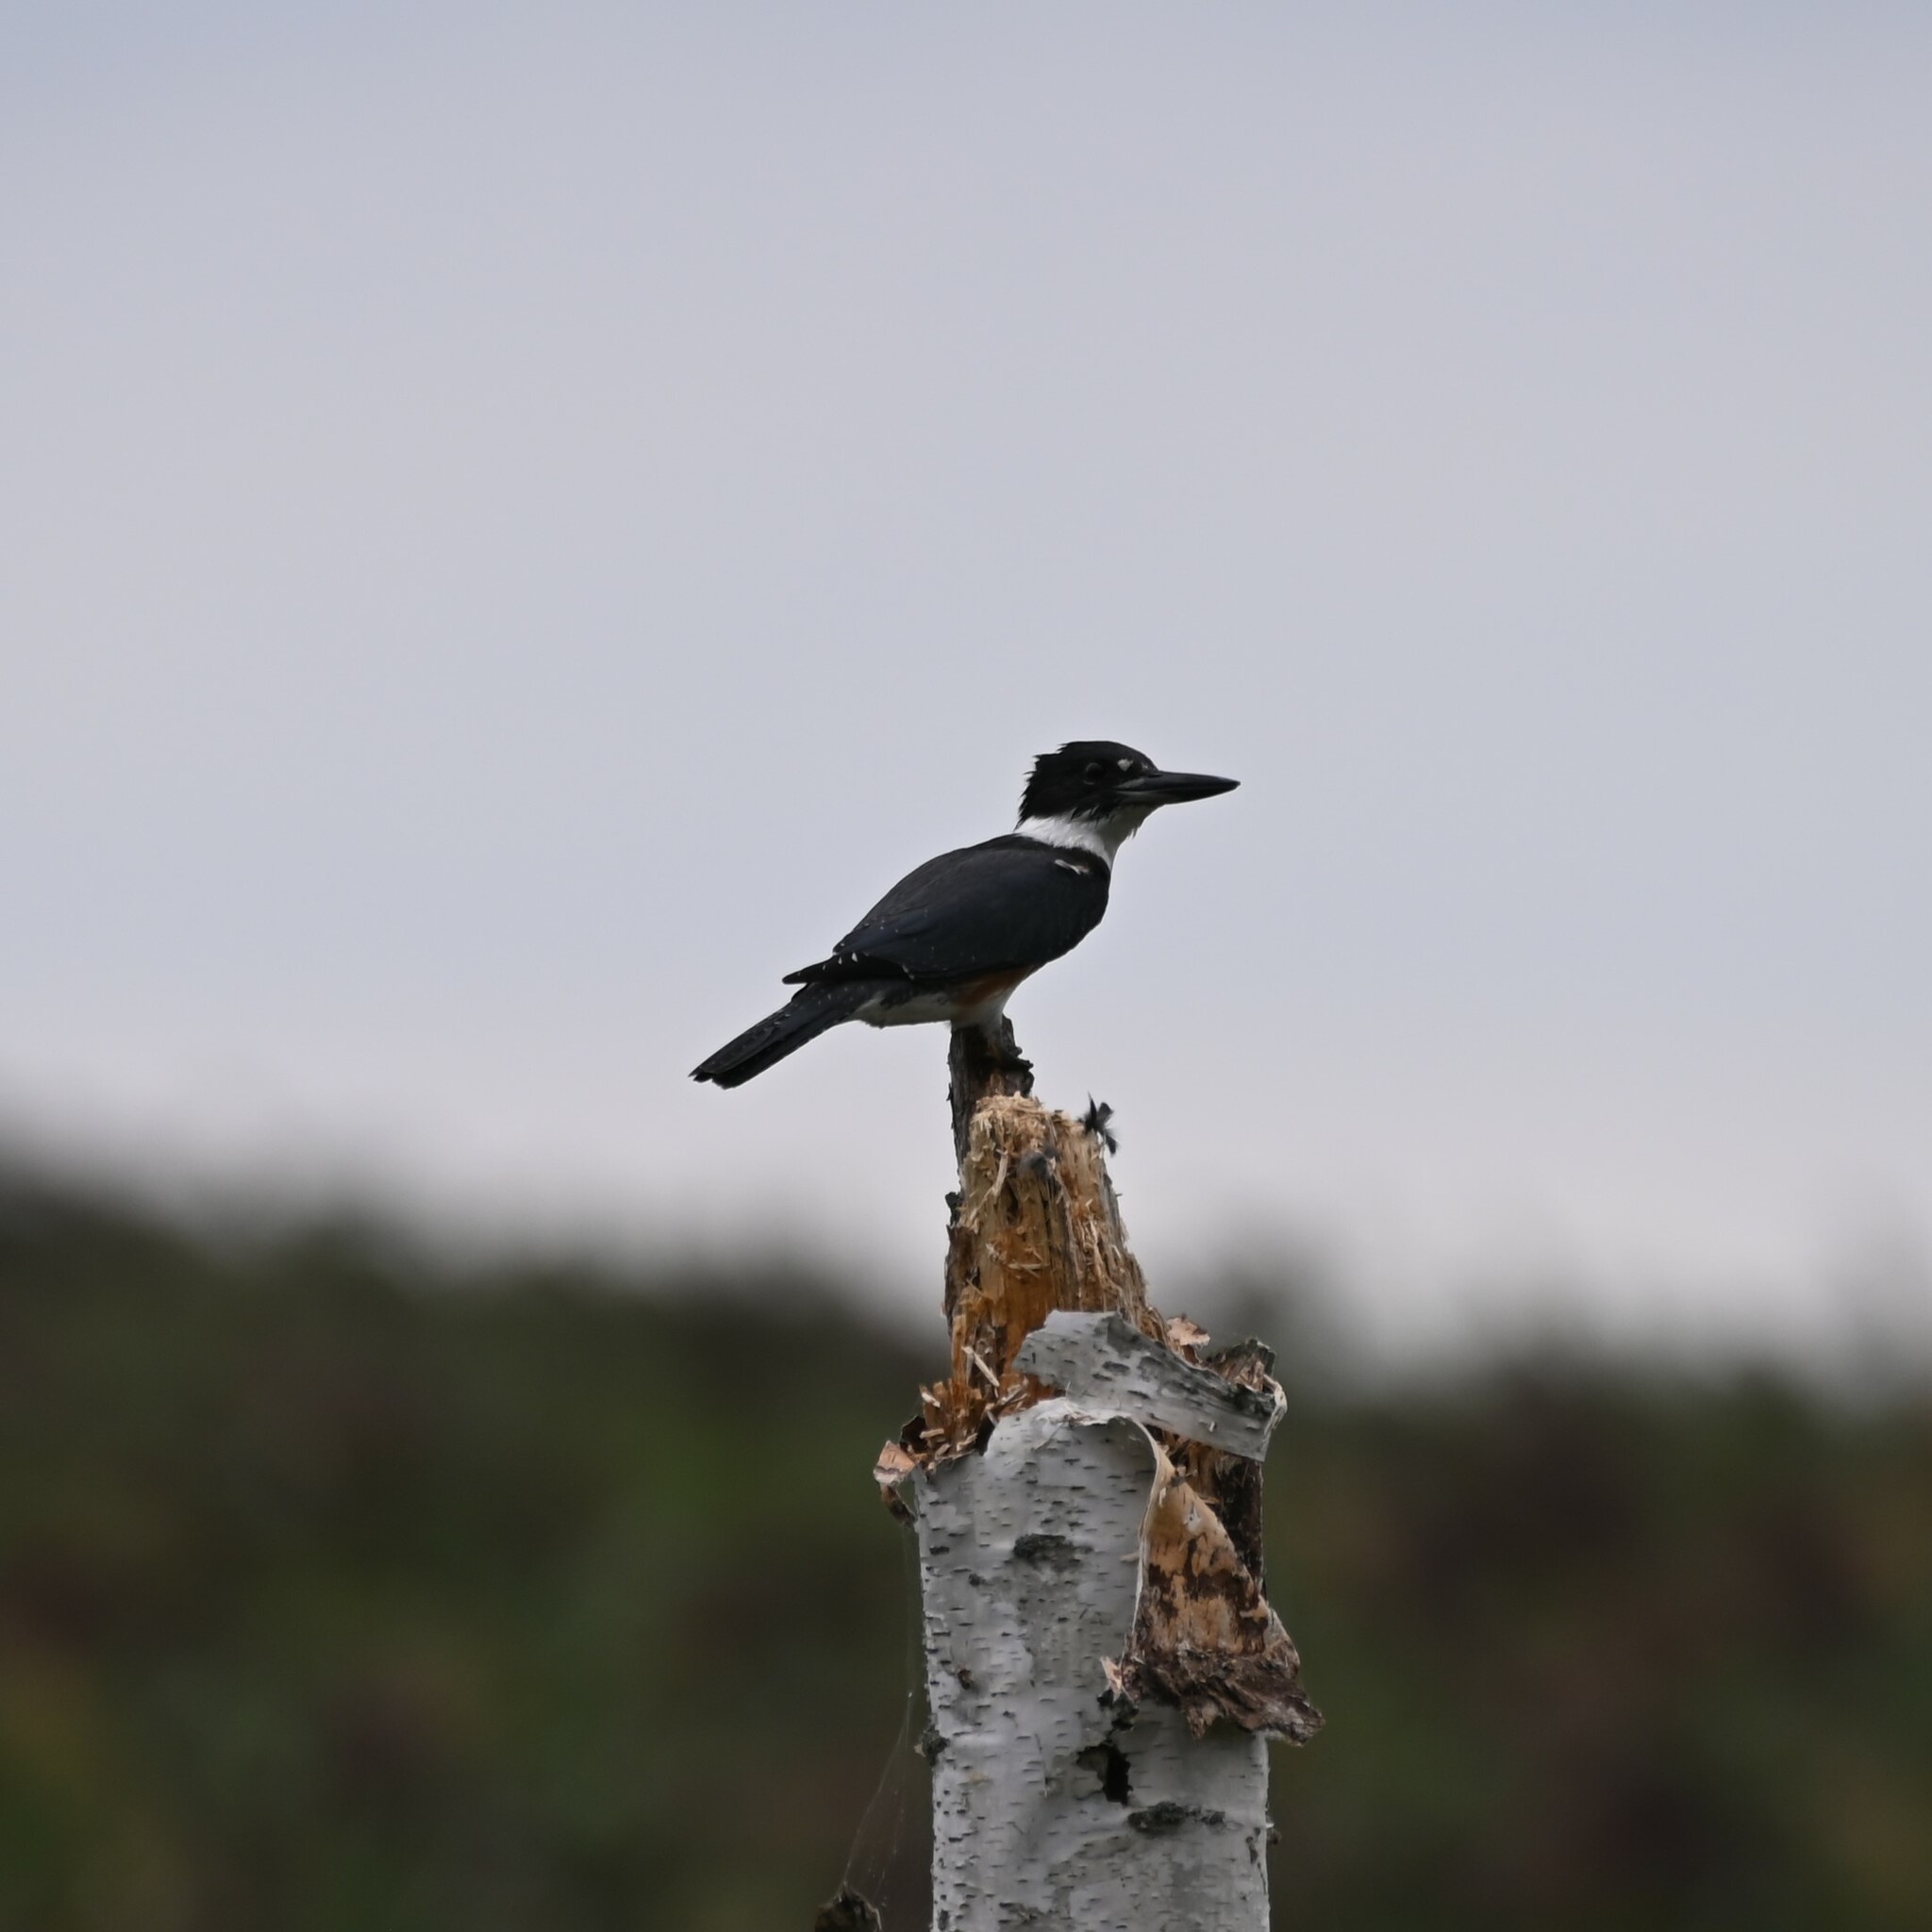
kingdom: Animalia
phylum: Chordata
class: Aves
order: Coraciiformes
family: Alcedinidae
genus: Megaceryle
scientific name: Megaceryle alcyon
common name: Belted kingfisher
